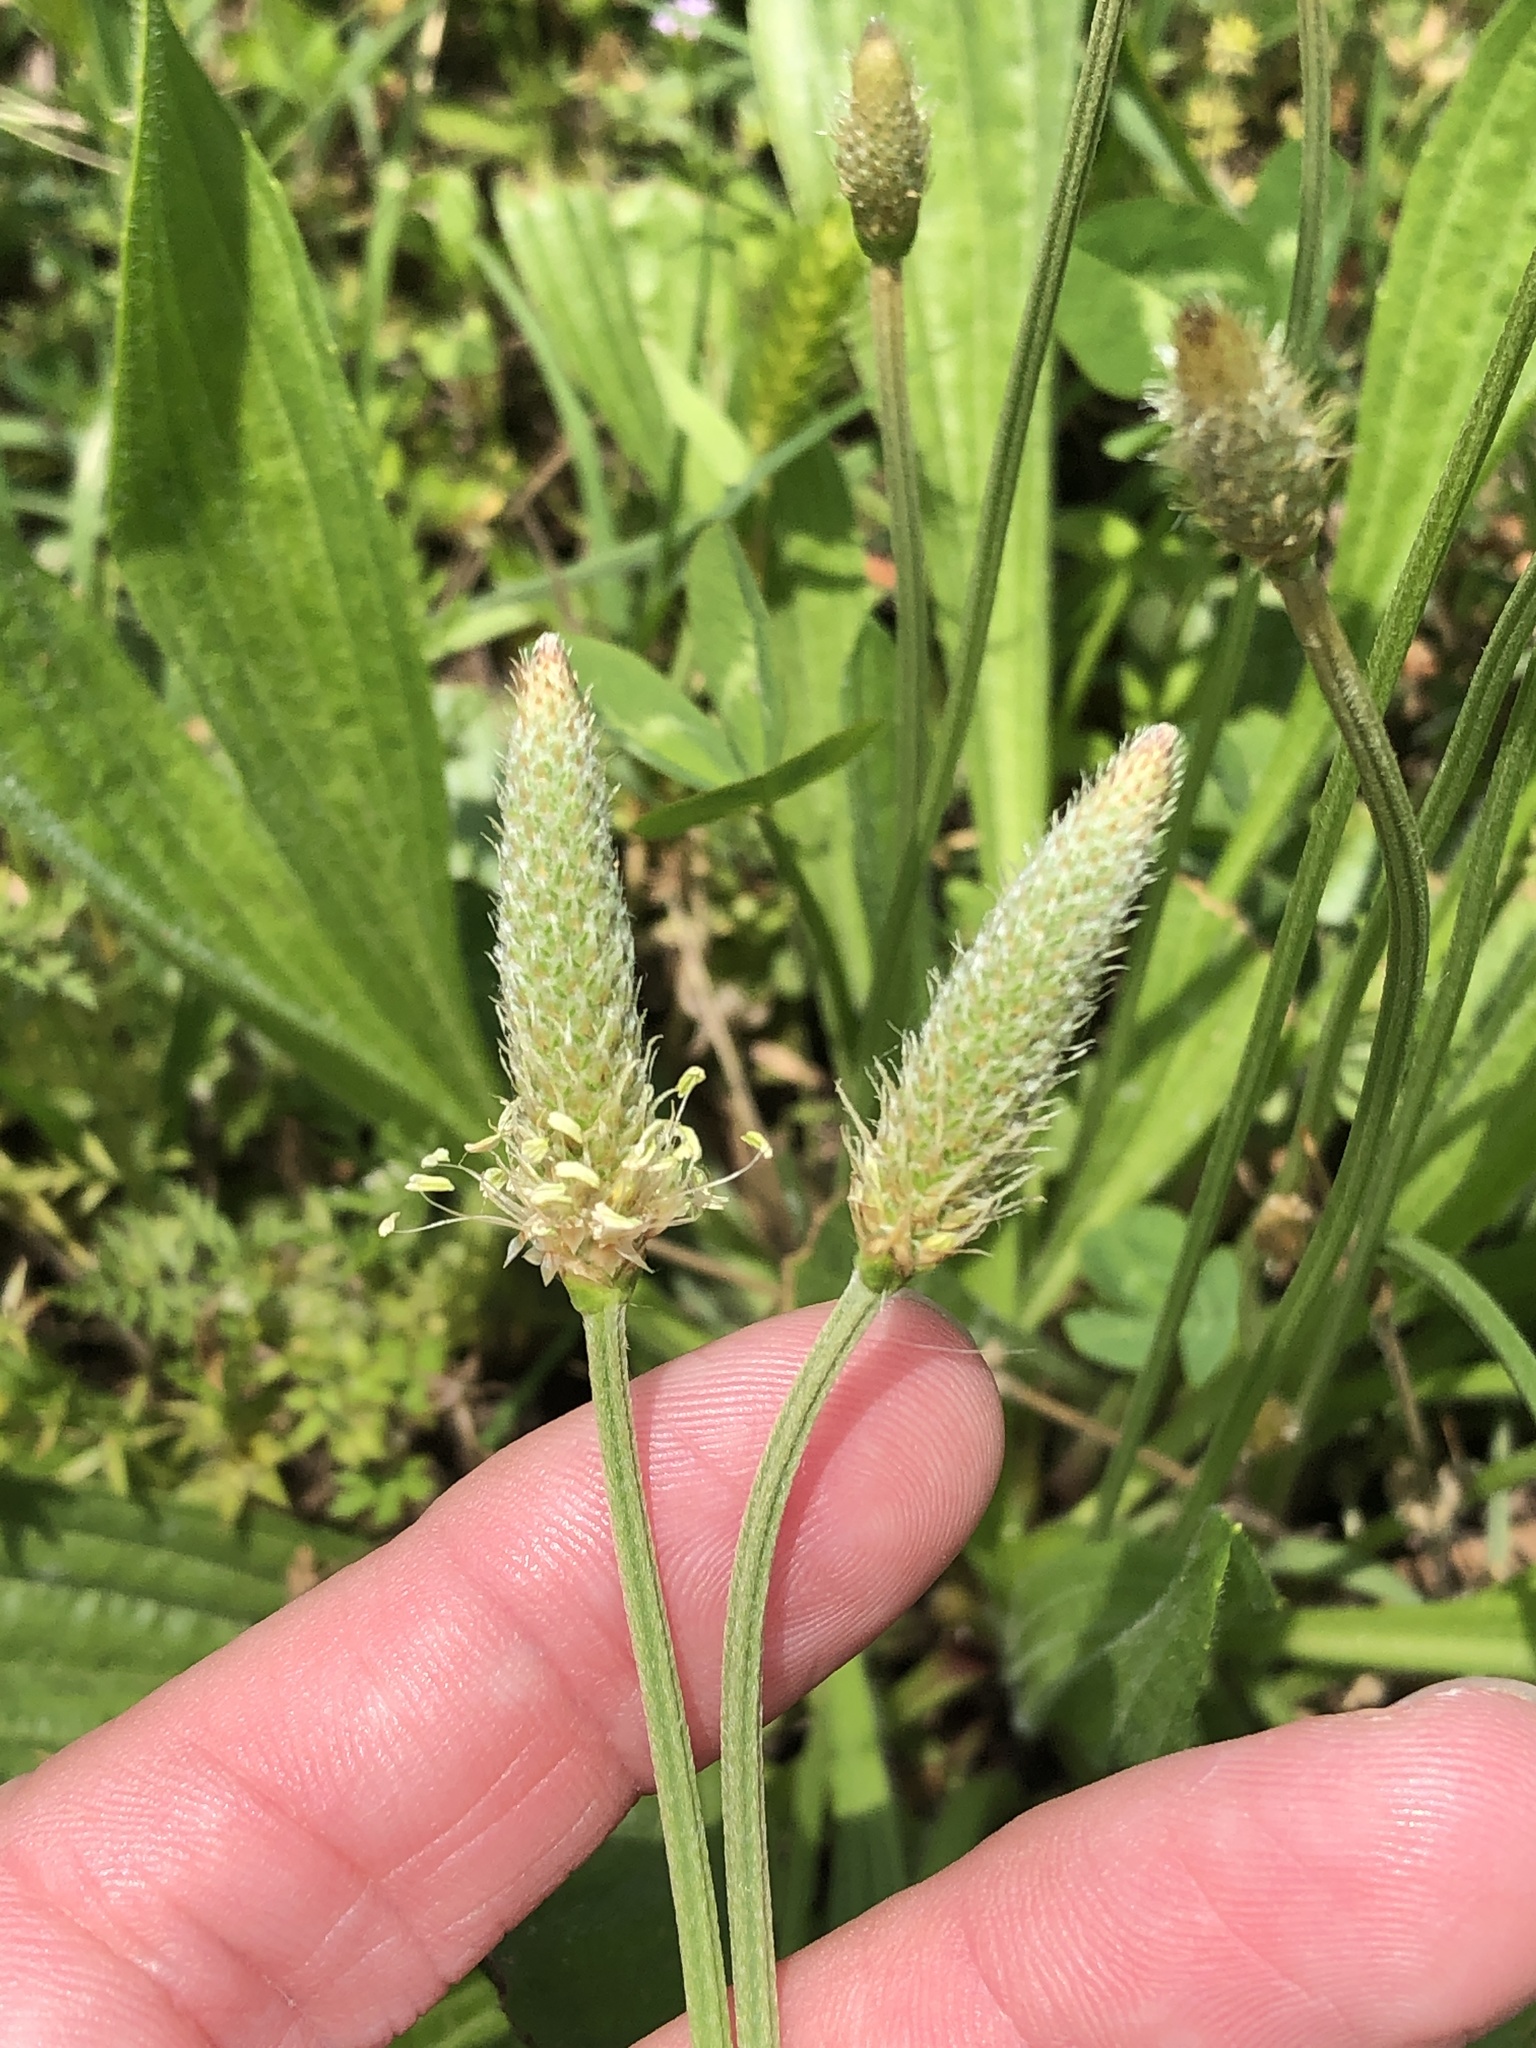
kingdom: Plantae
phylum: Tracheophyta
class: Magnoliopsida
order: Lamiales
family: Plantaginaceae
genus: Plantago
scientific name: Plantago lanceolata
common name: Ribwort plantain
